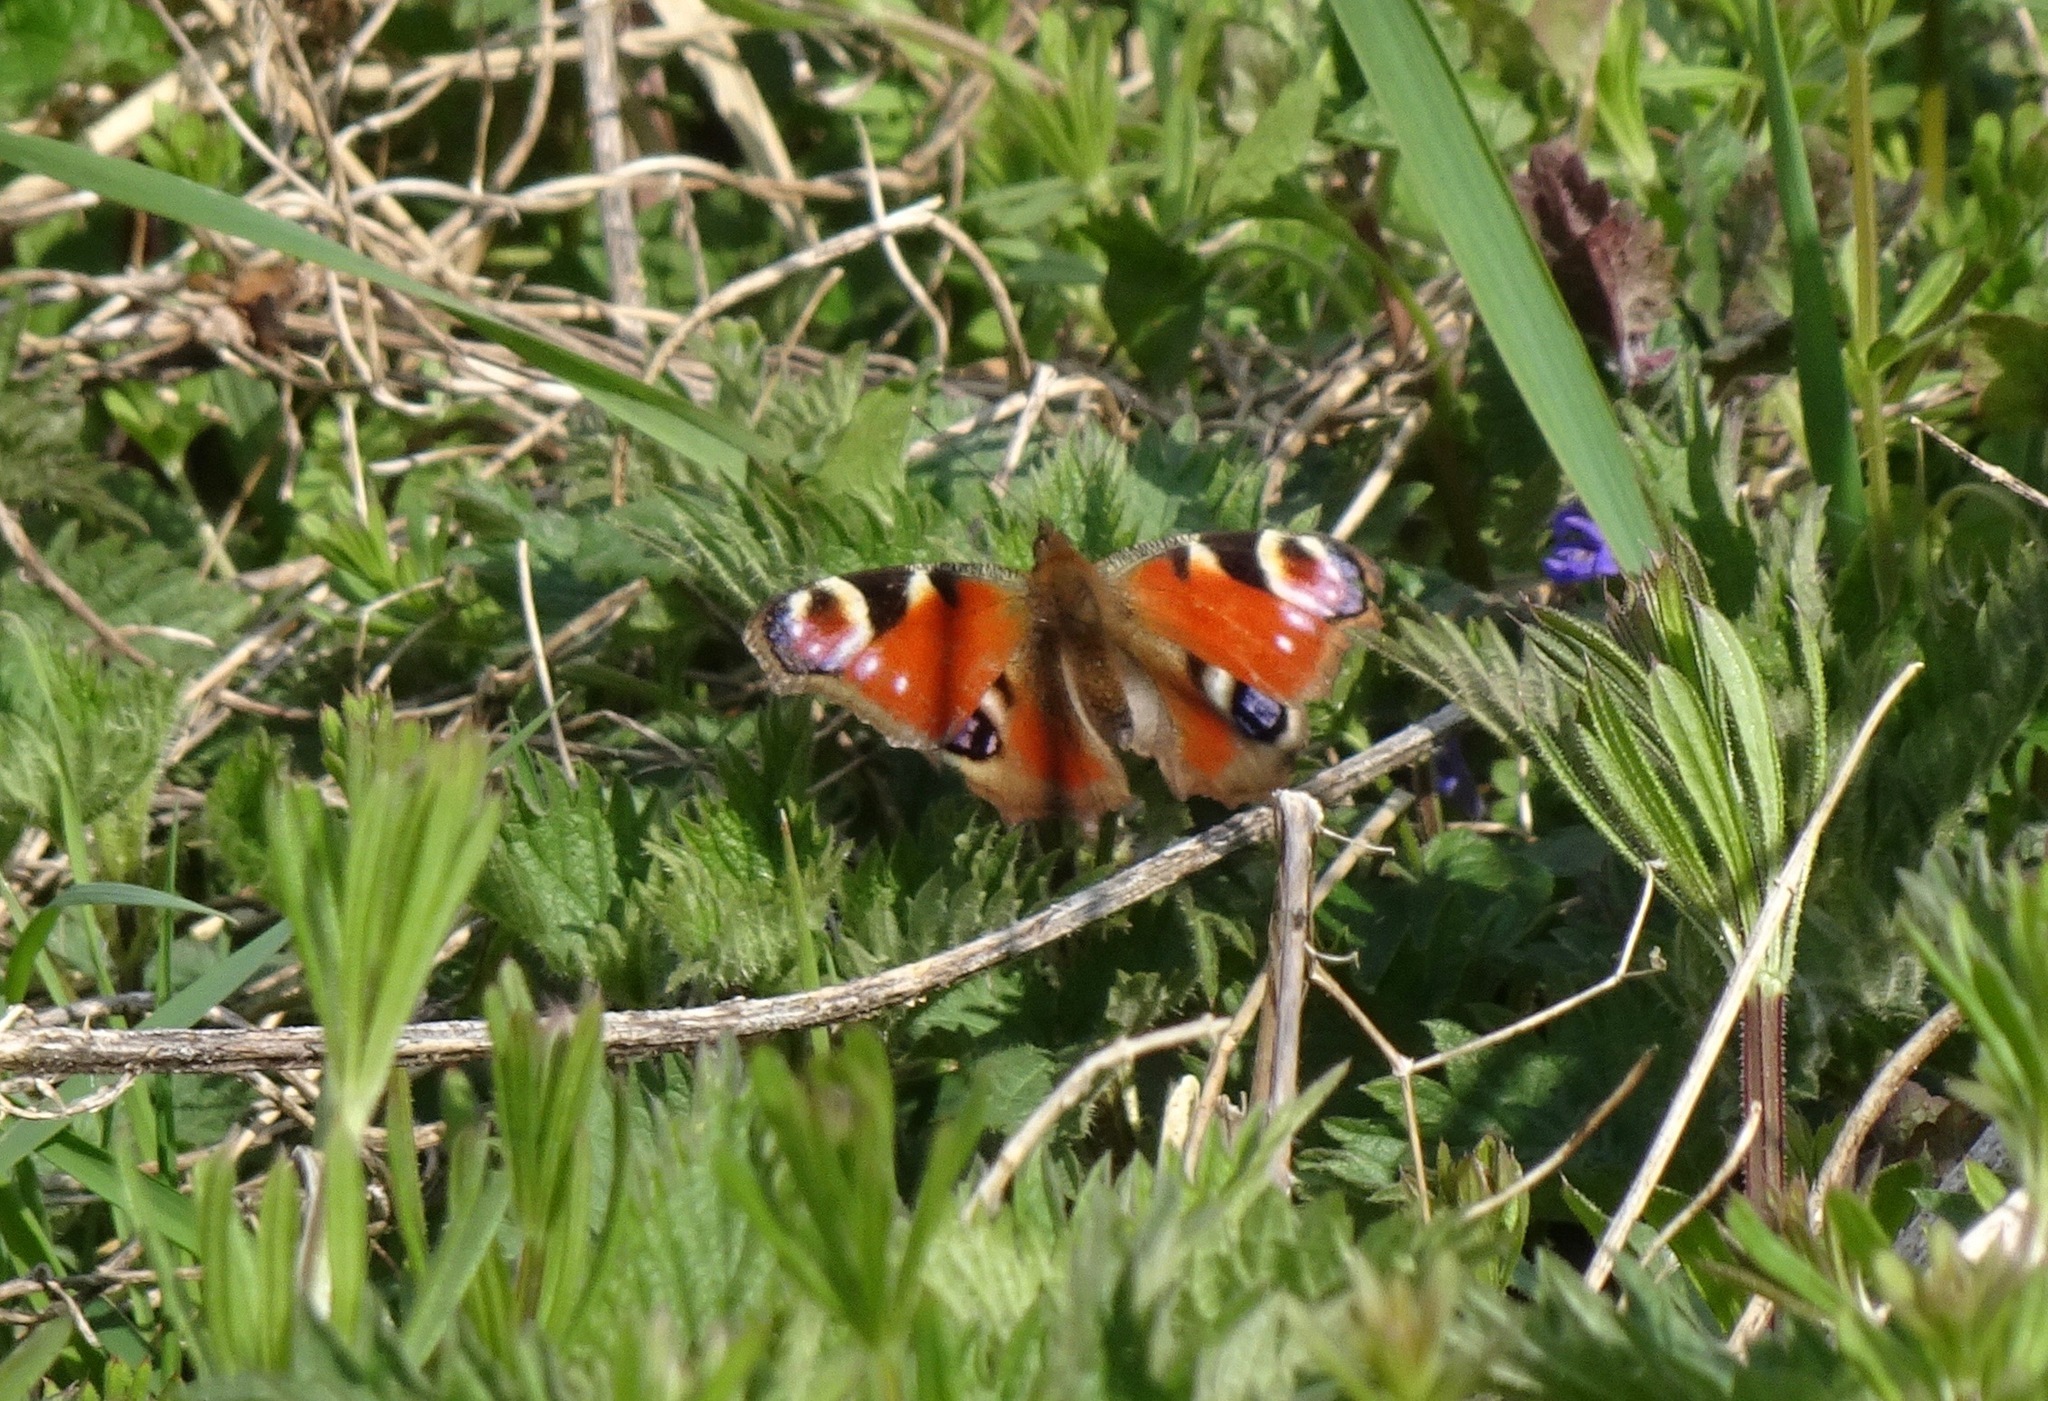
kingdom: Animalia
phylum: Arthropoda
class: Insecta
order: Lepidoptera
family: Nymphalidae
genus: Aglais
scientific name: Aglais io
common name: Peacock
